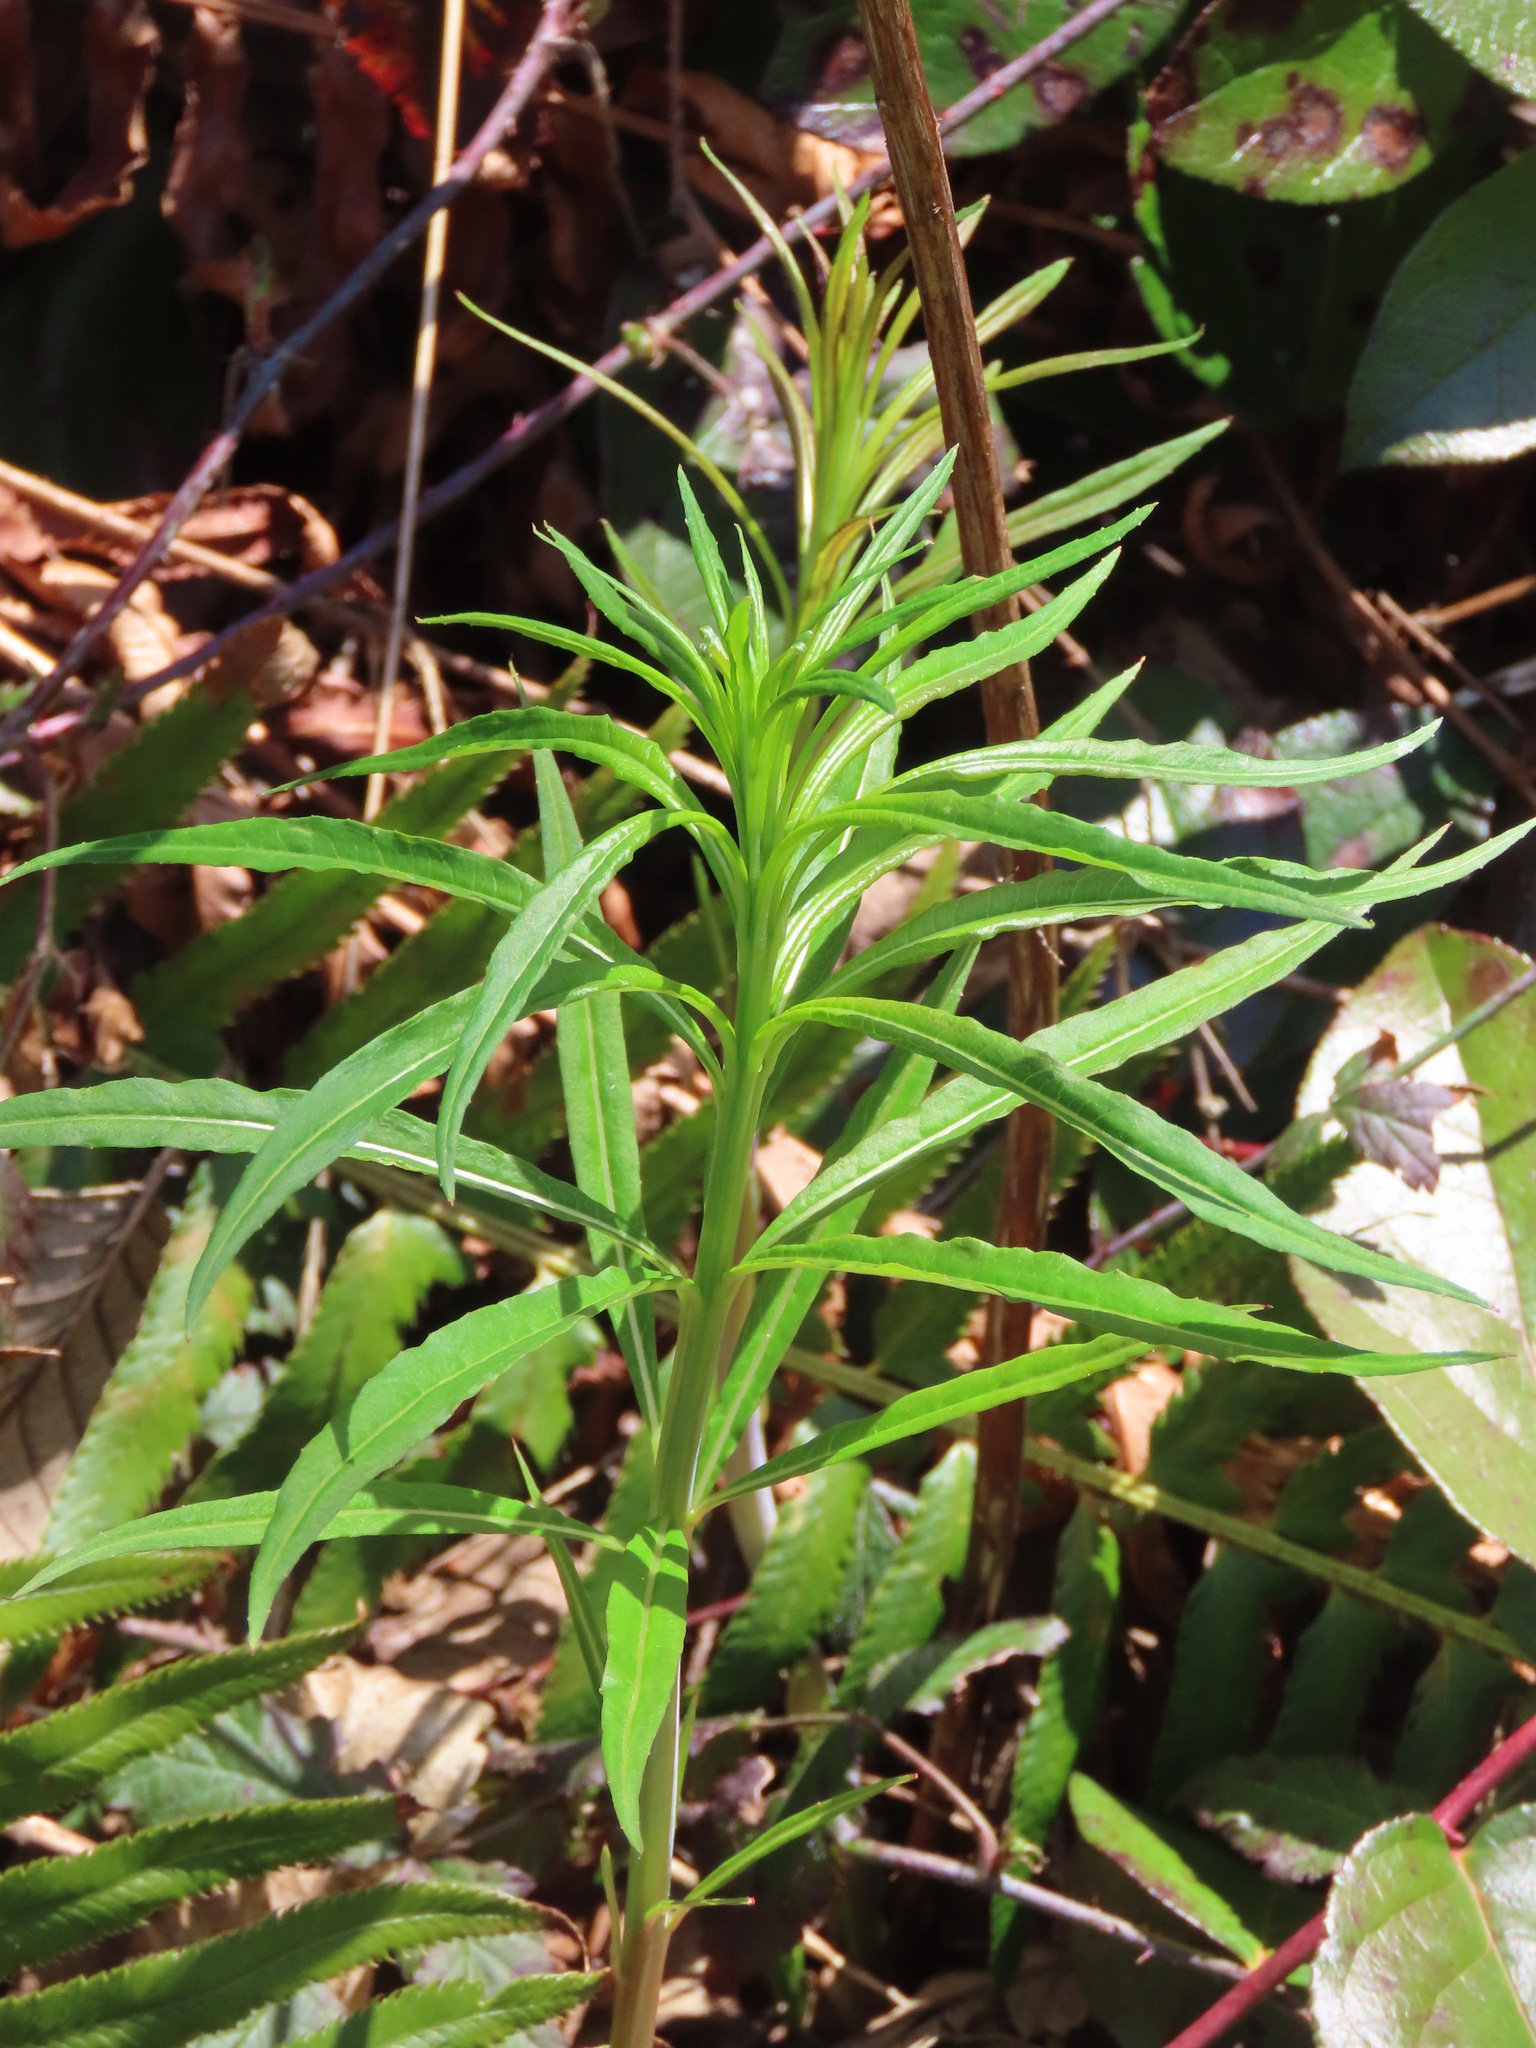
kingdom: Plantae
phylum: Tracheophyta
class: Magnoliopsida
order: Myrtales
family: Onagraceae
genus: Chamaenerion
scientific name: Chamaenerion angustifolium
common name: Fireweed
